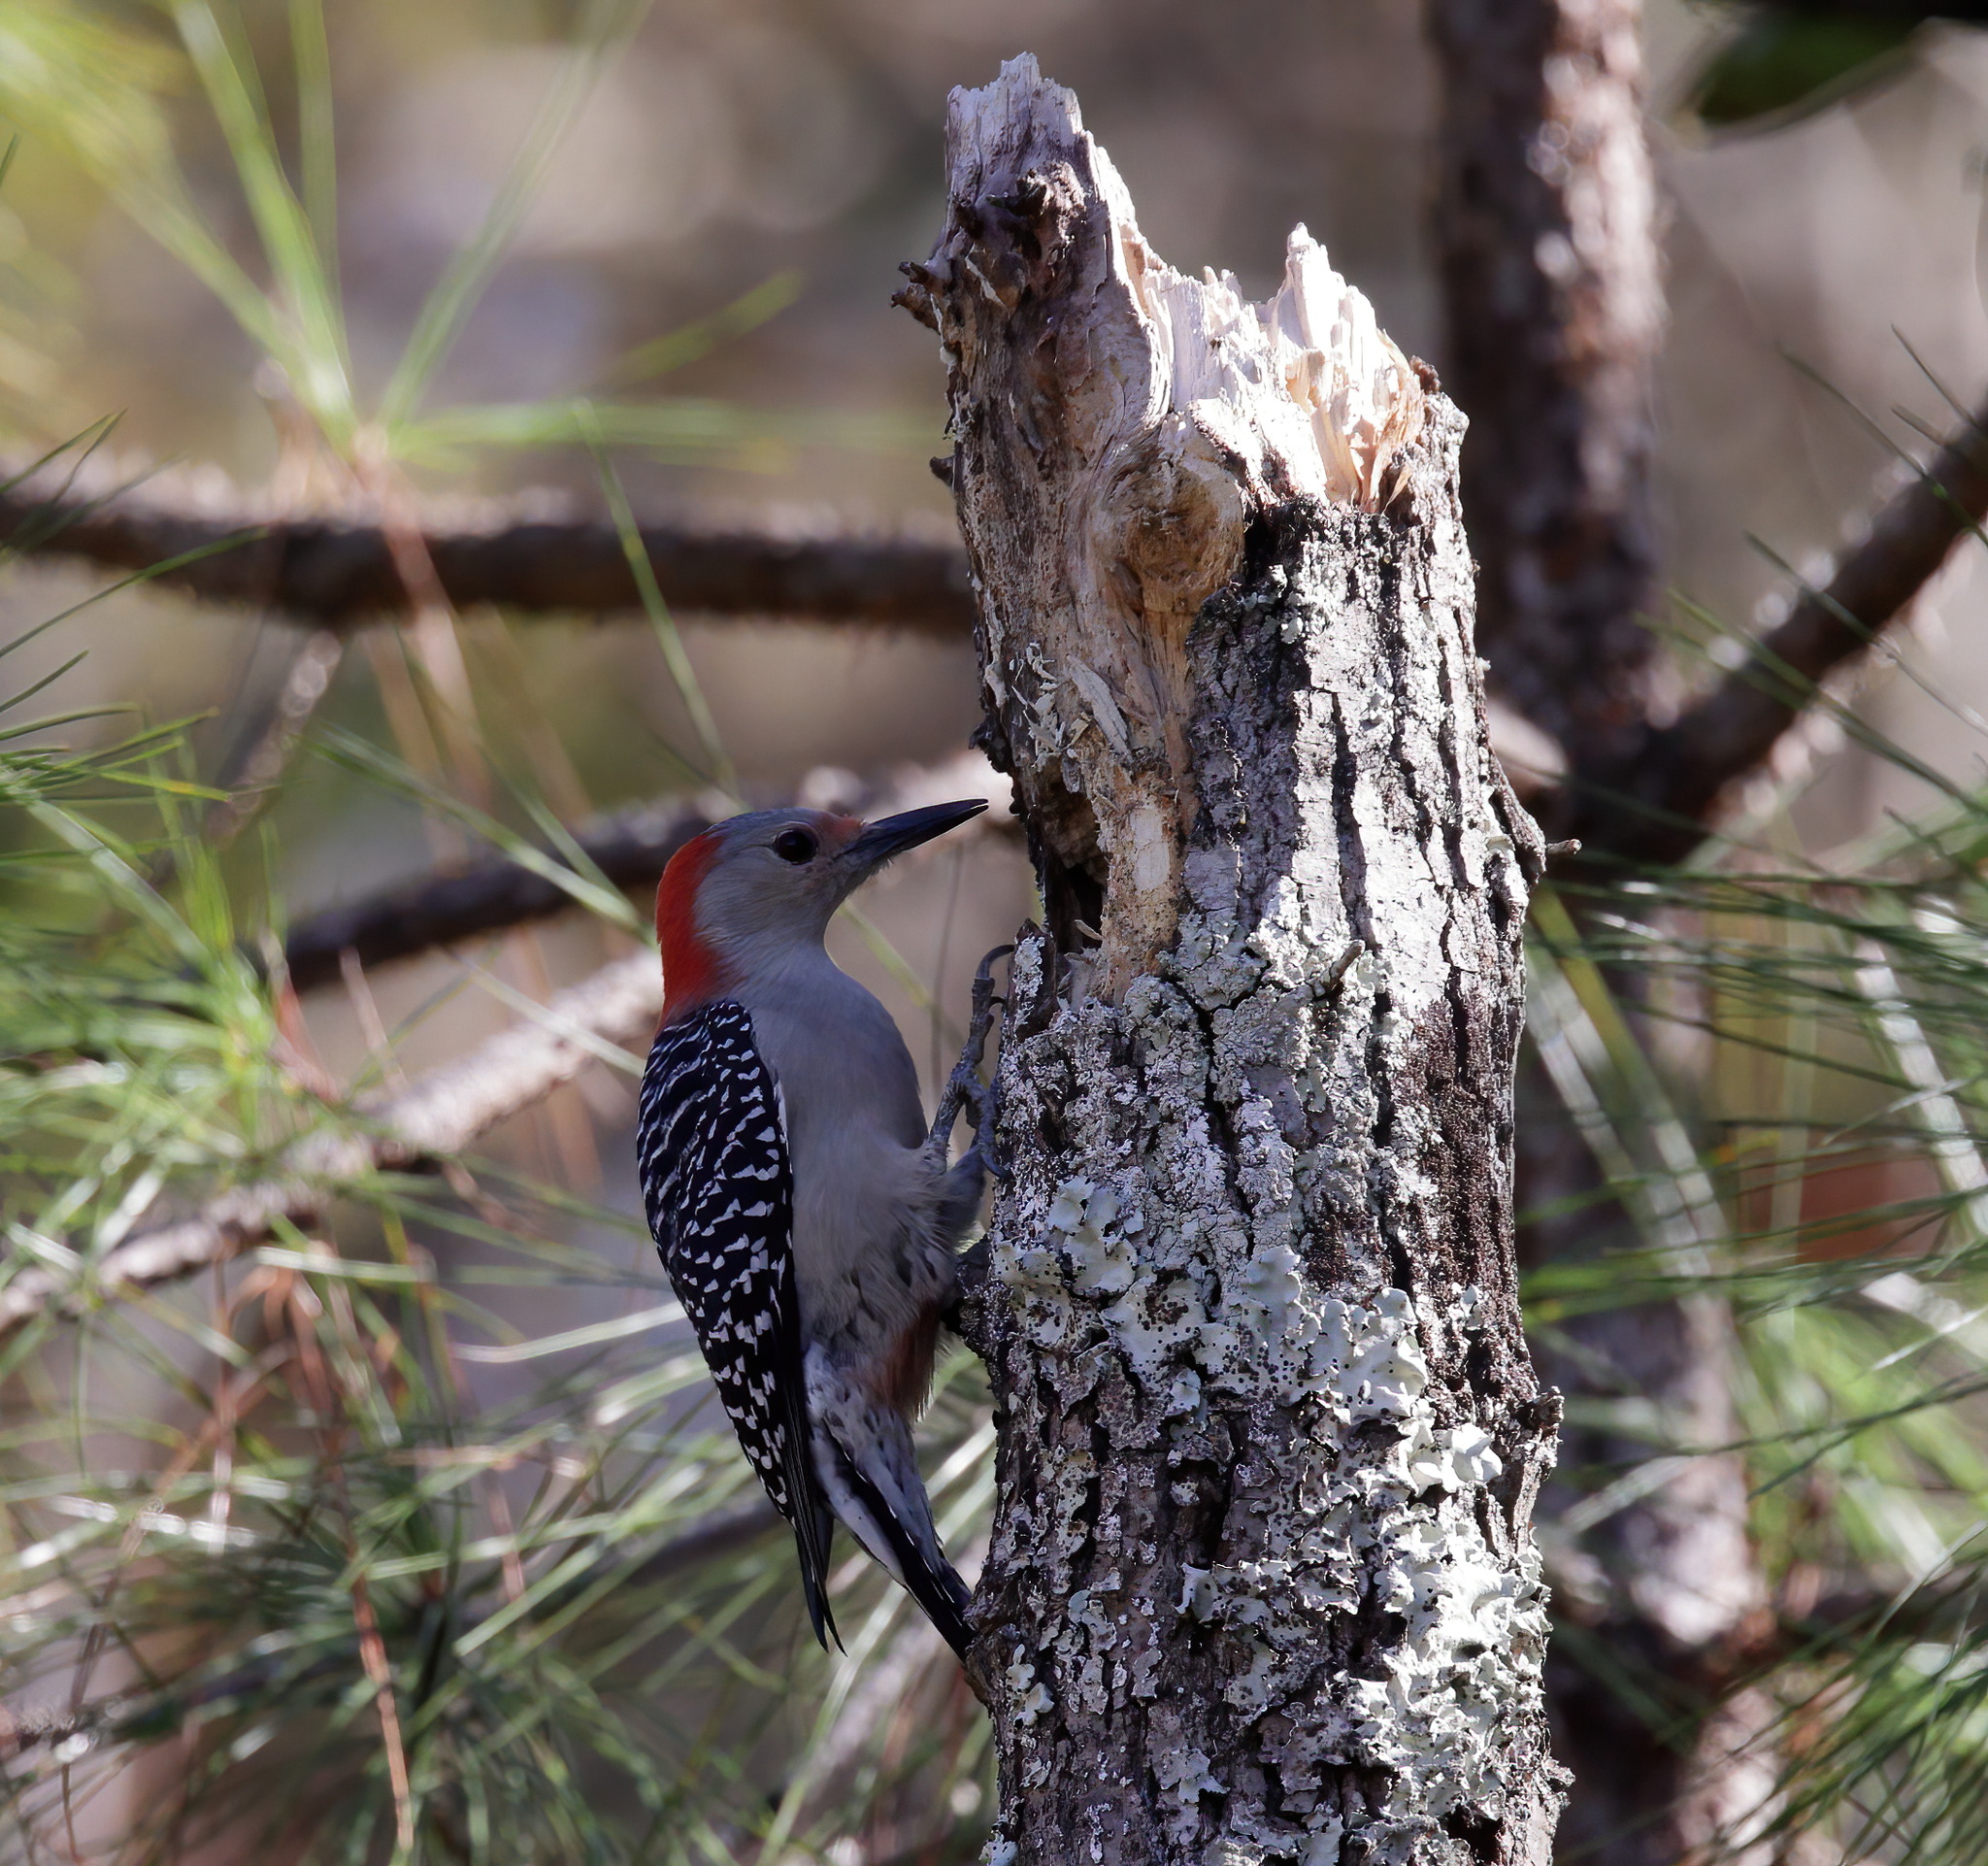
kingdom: Animalia
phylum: Chordata
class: Aves
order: Piciformes
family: Picidae
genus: Melanerpes
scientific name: Melanerpes carolinus
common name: Red-bellied woodpecker
